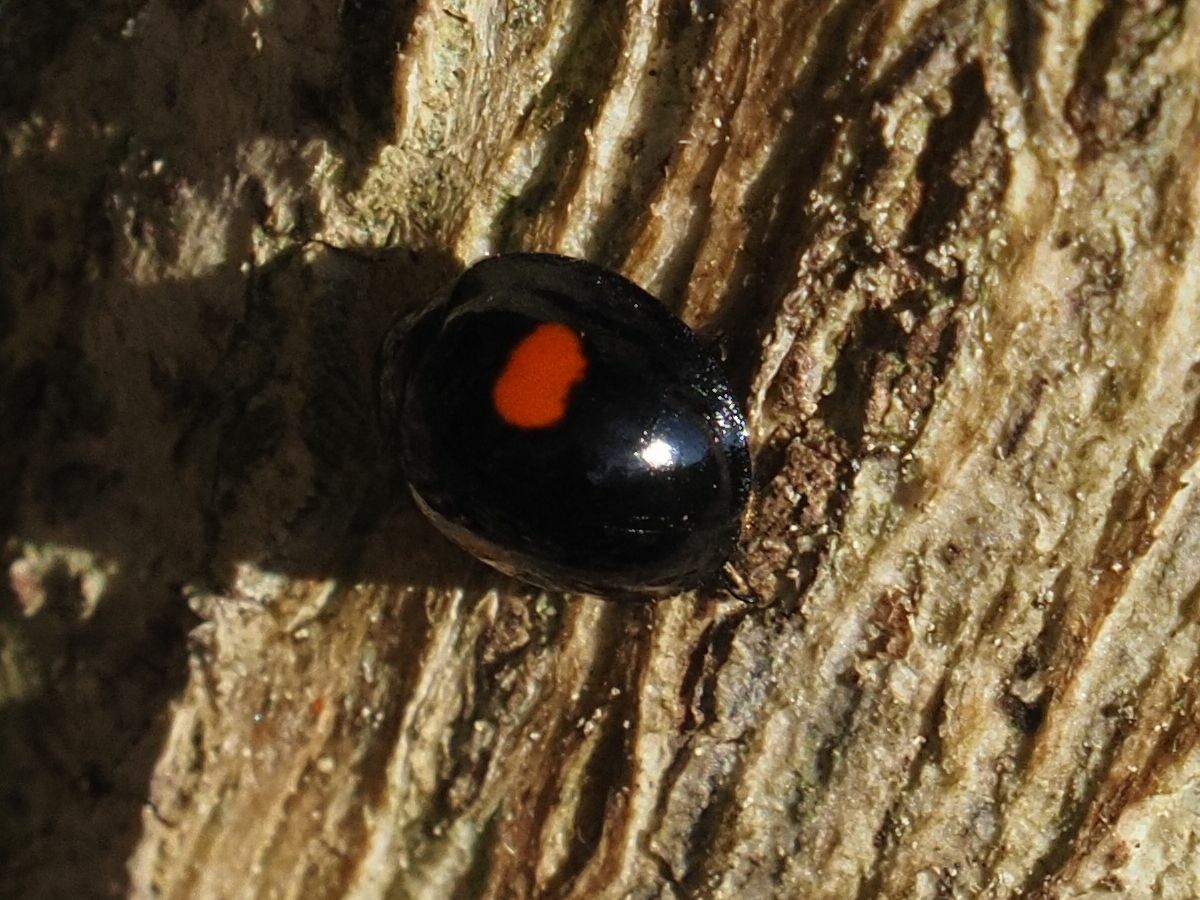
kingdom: Animalia
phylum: Arthropoda
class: Insecta
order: Coleoptera
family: Coccinellidae
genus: Chilocorus
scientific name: Chilocorus renipustulatus
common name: Kidney-spot ladybird
